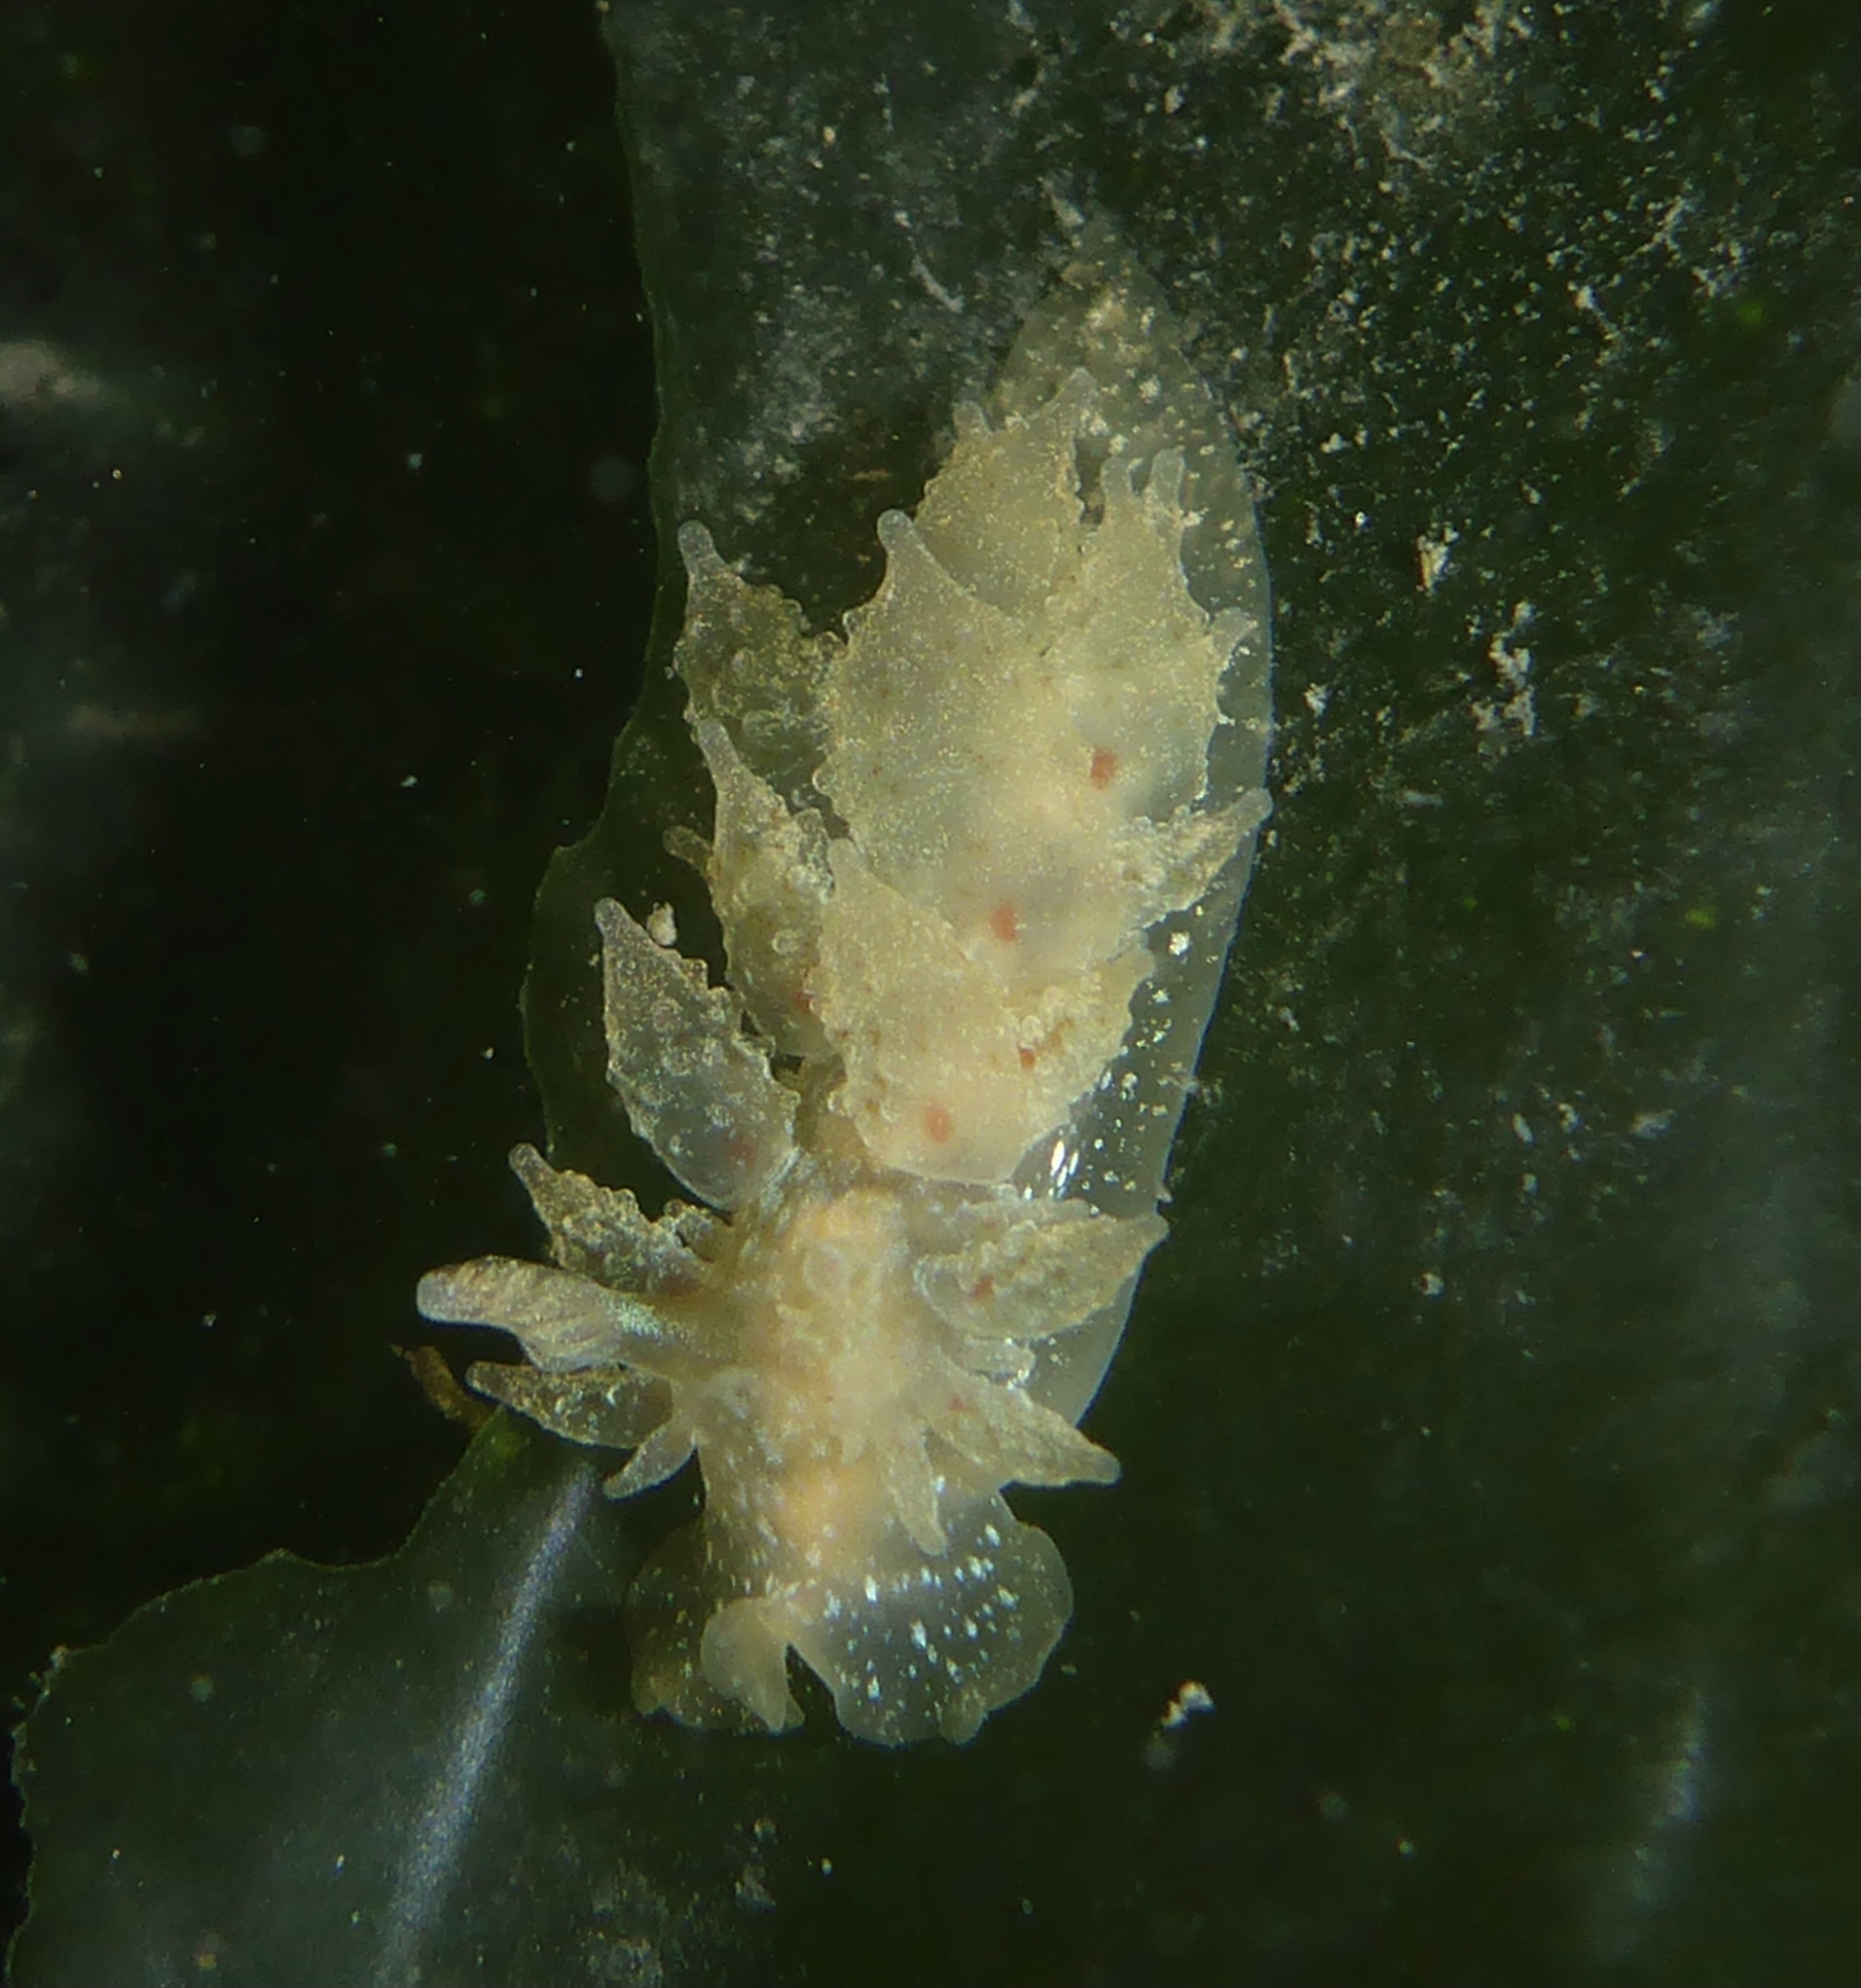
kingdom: Animalia
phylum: Mollusca
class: Gastropoda
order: Nudibranchia
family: Dironidae
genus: Dirona
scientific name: Dirona picta
